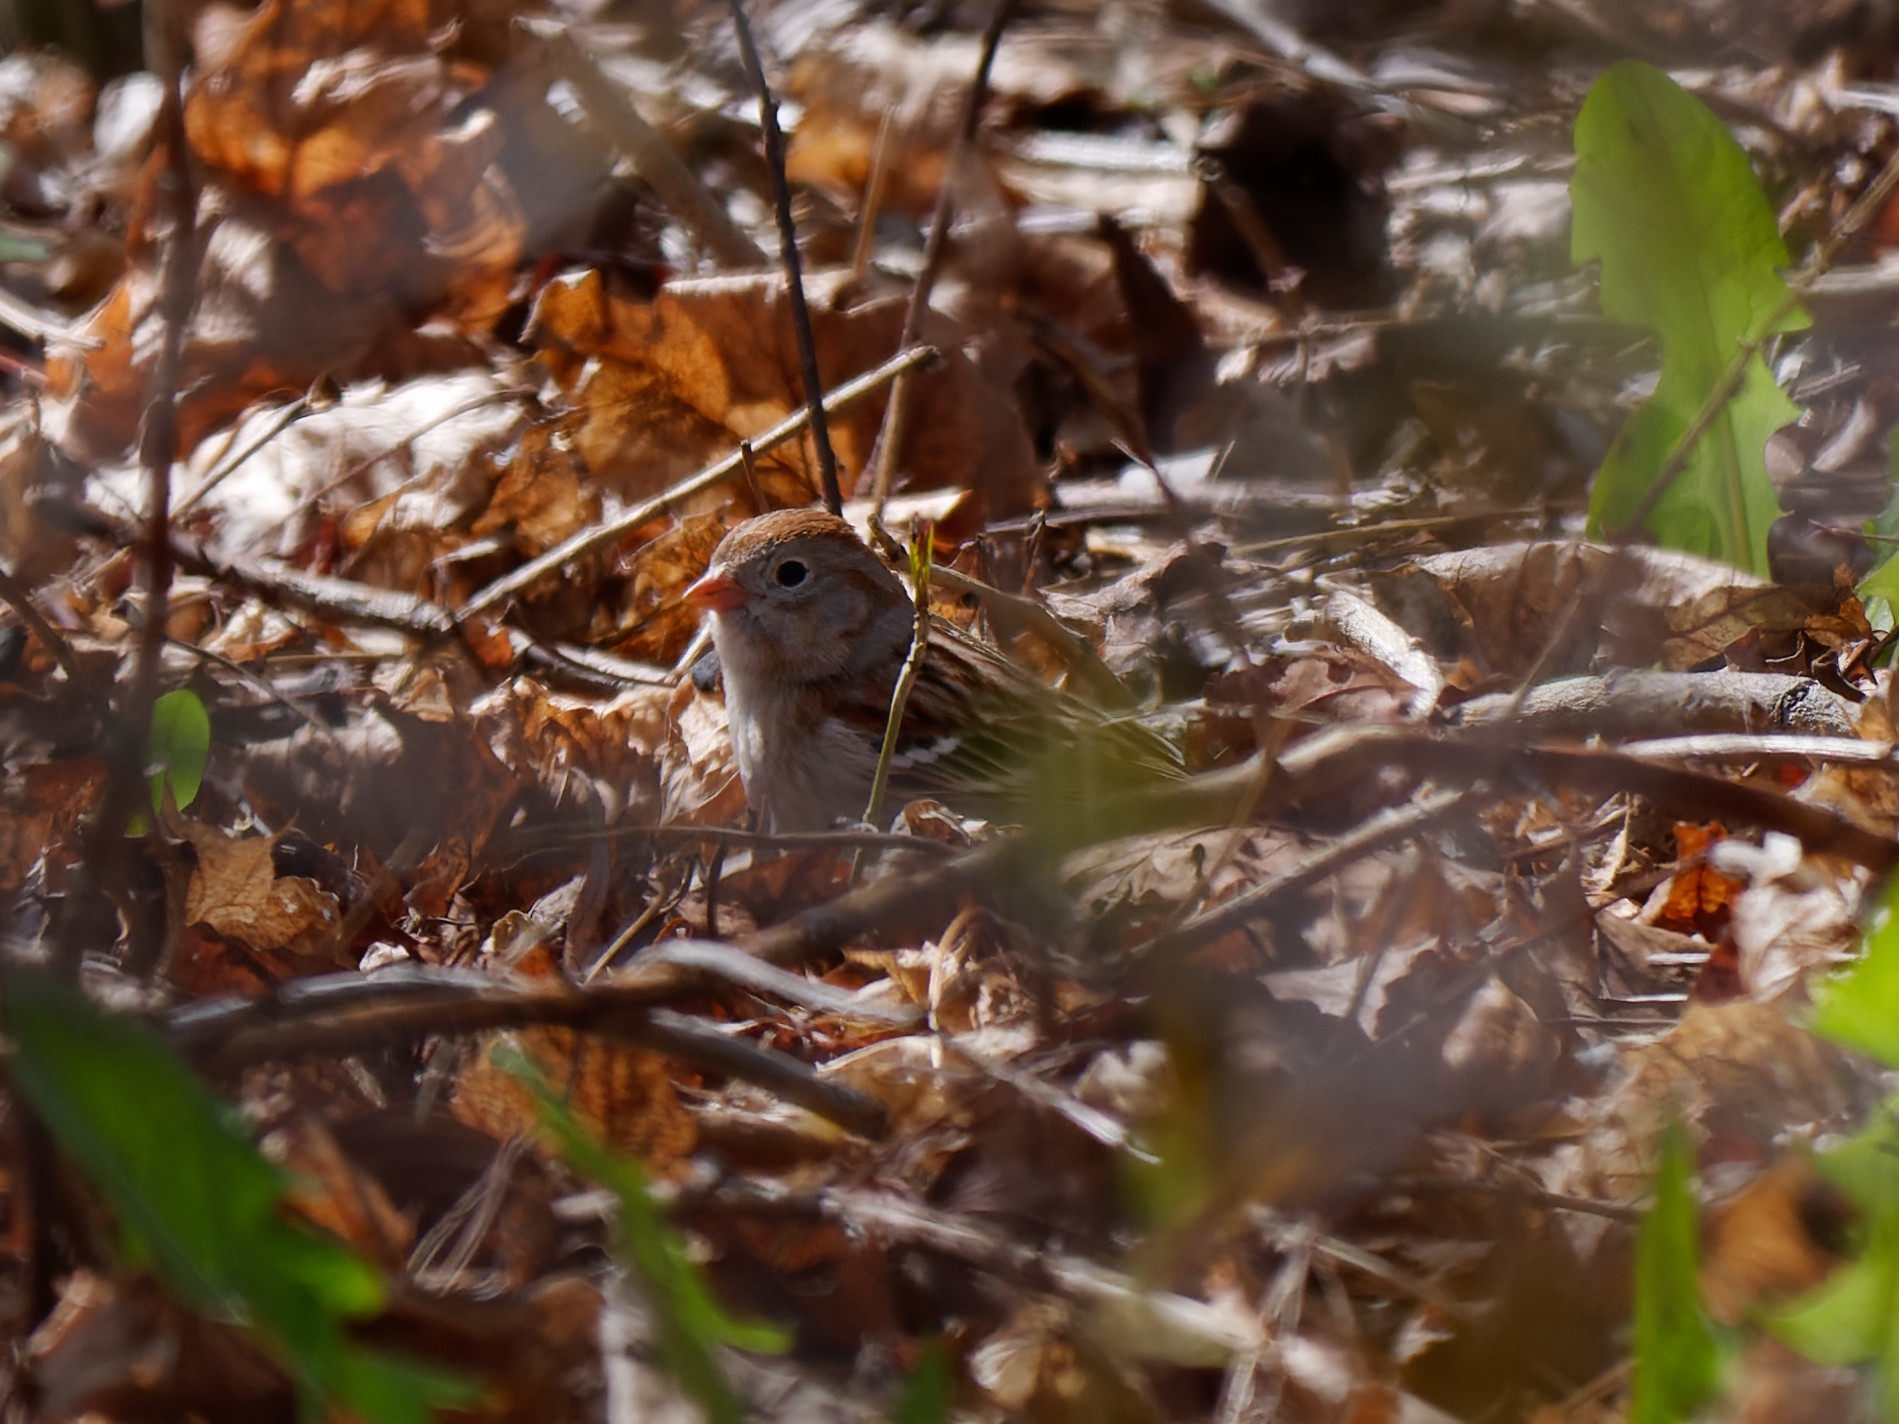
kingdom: Animalia
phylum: Chordata
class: Aves
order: Passeriformes
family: Passerellidae
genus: Spizella
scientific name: Spizella pusilla
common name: Field sparrow
